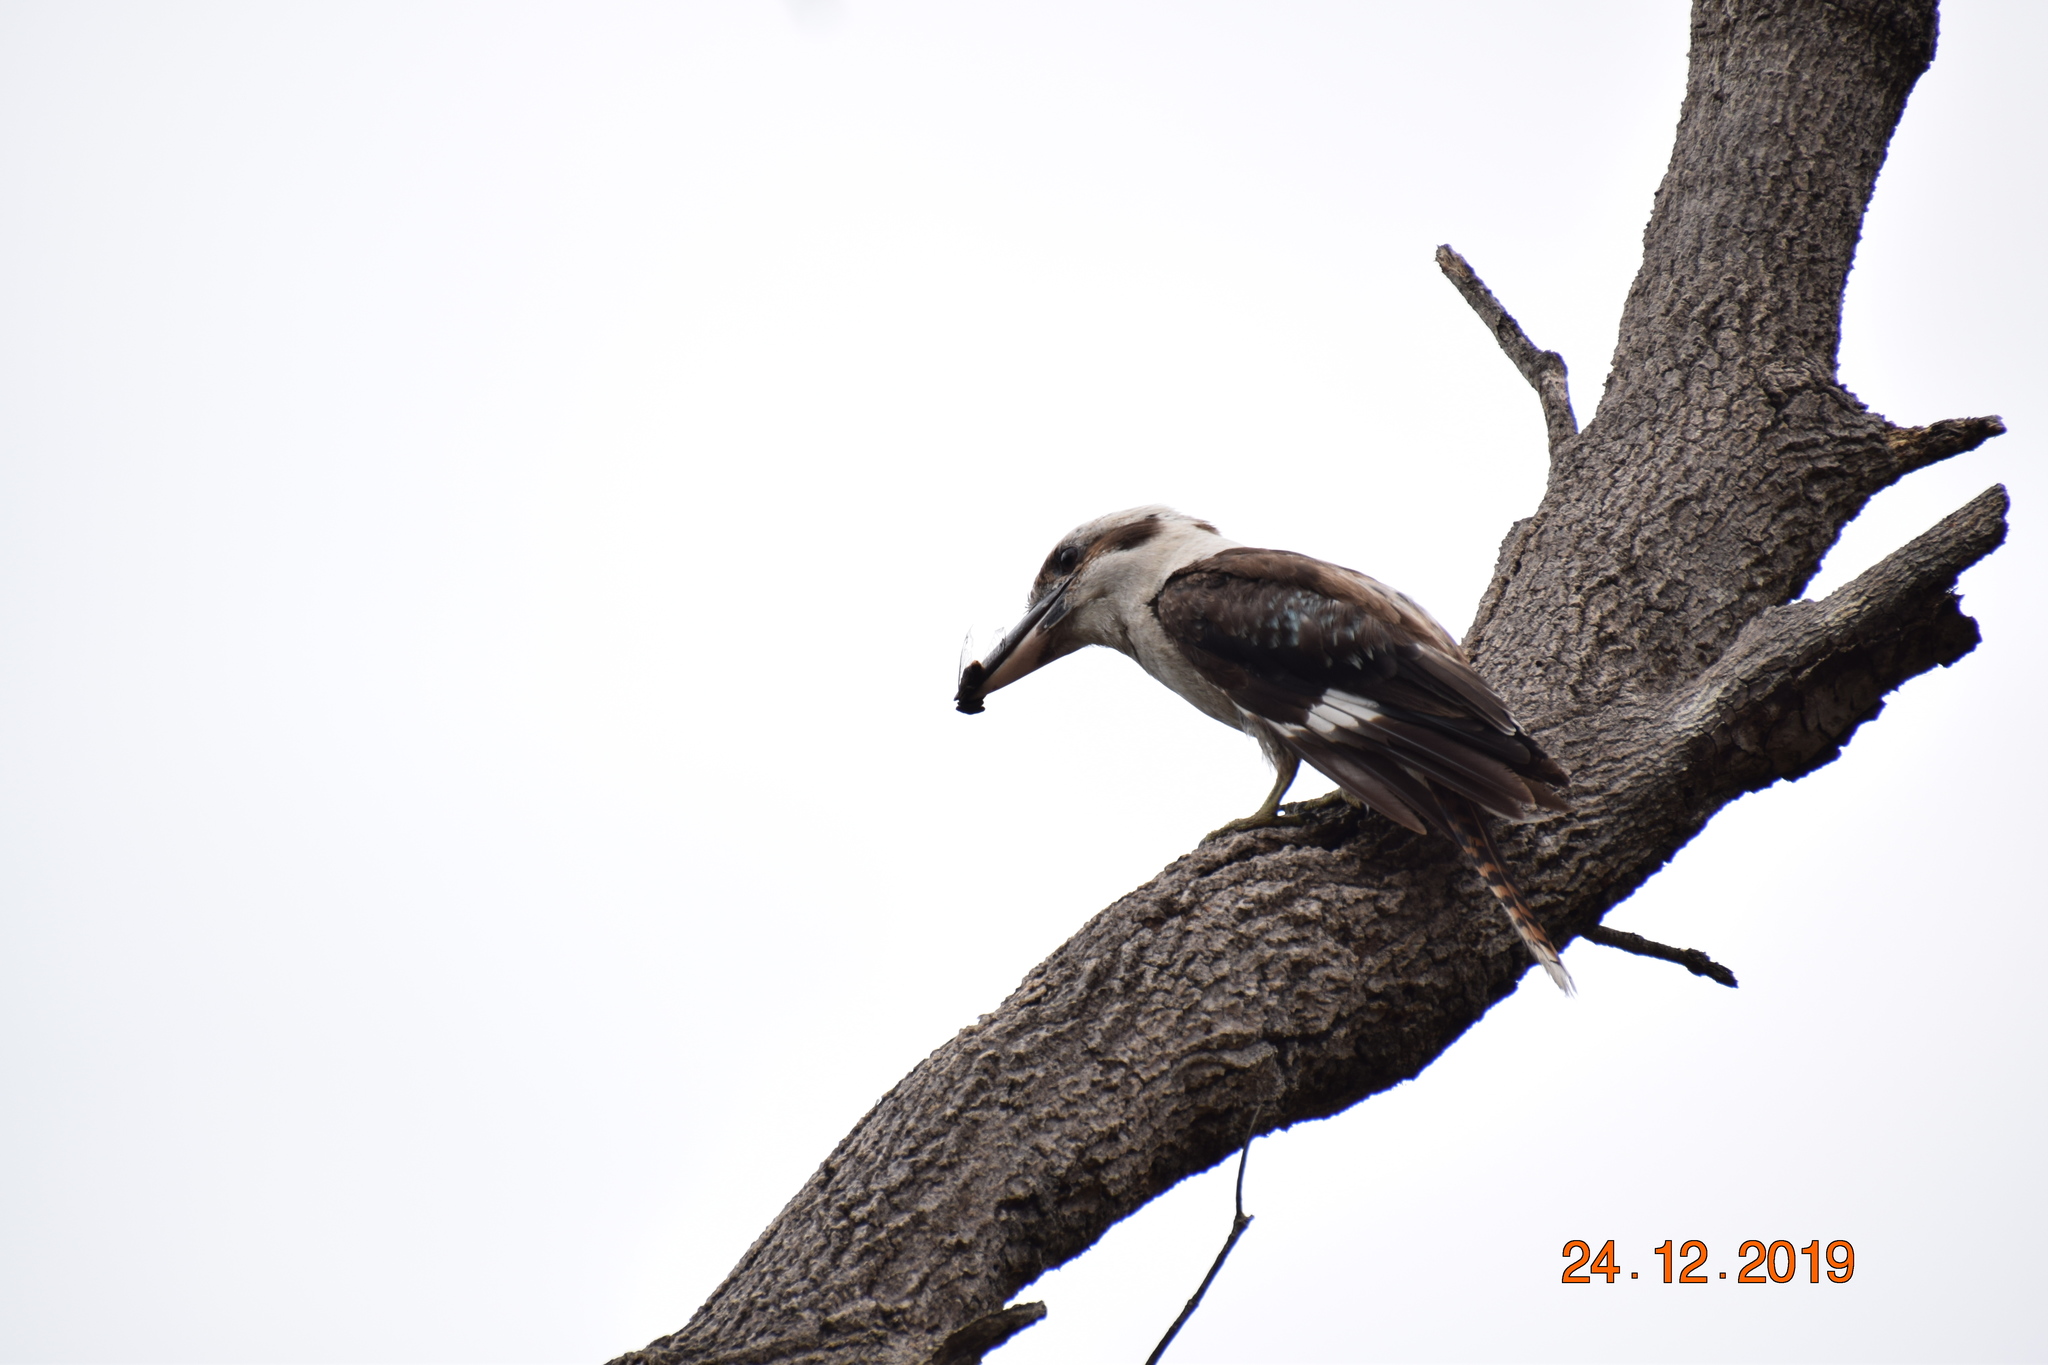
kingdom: Animalia
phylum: Chordata
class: Aves
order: Coraciiformes
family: Alcedinidae
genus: Dacelo
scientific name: Dacelo novaeguineae
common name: Laughing kookaburra
